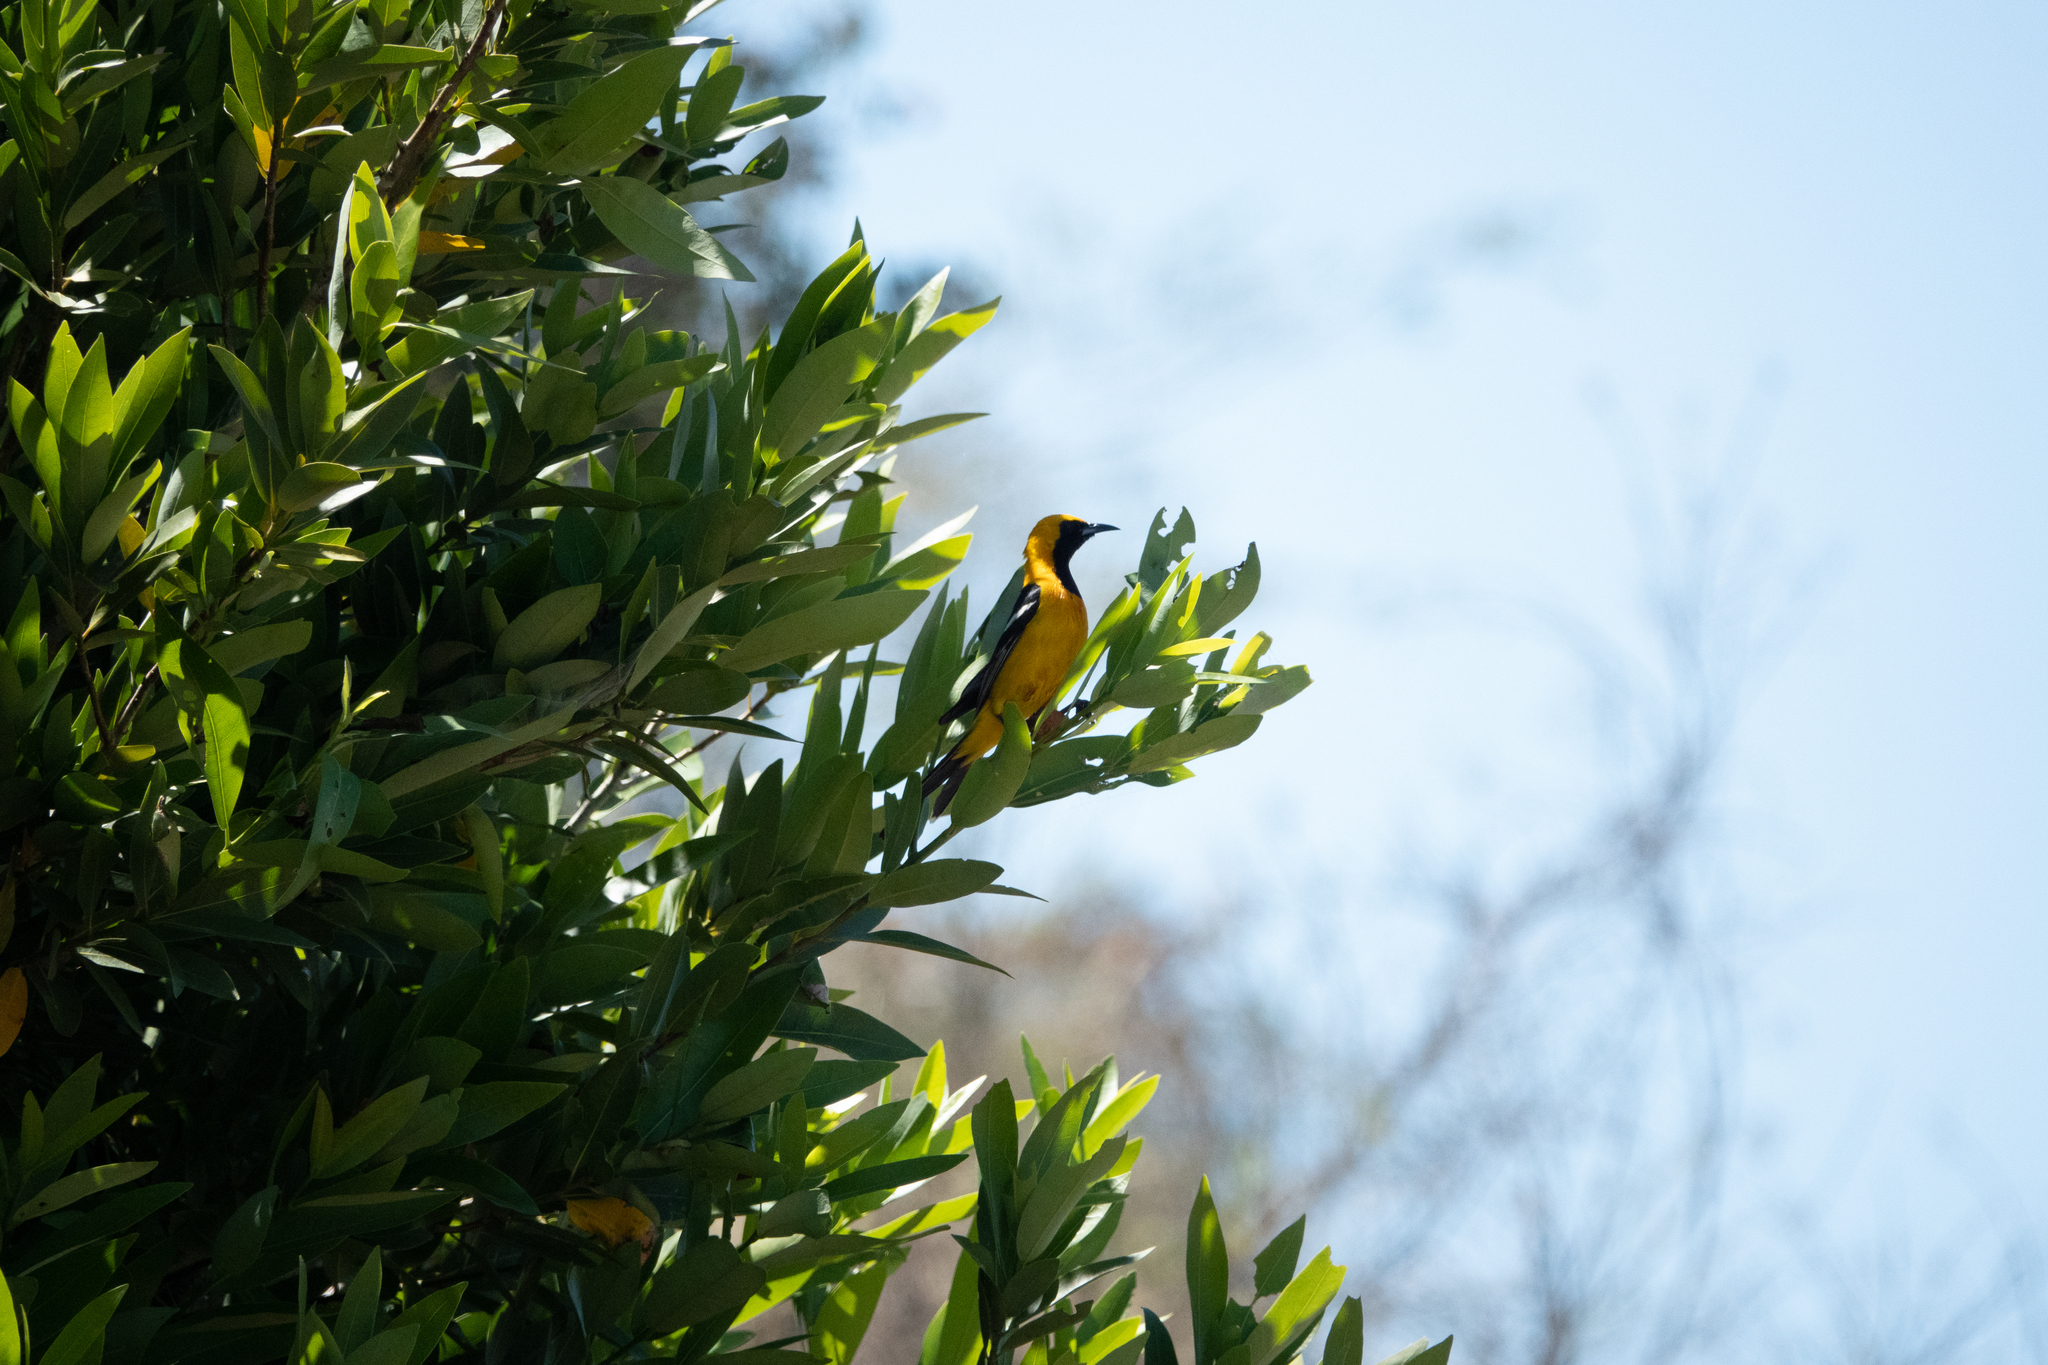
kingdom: Animalia
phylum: Chordata
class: Aves
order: Passeriformes
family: Icteridae
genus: Icterus
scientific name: Icterus cucullatus
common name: Hooded oriole
